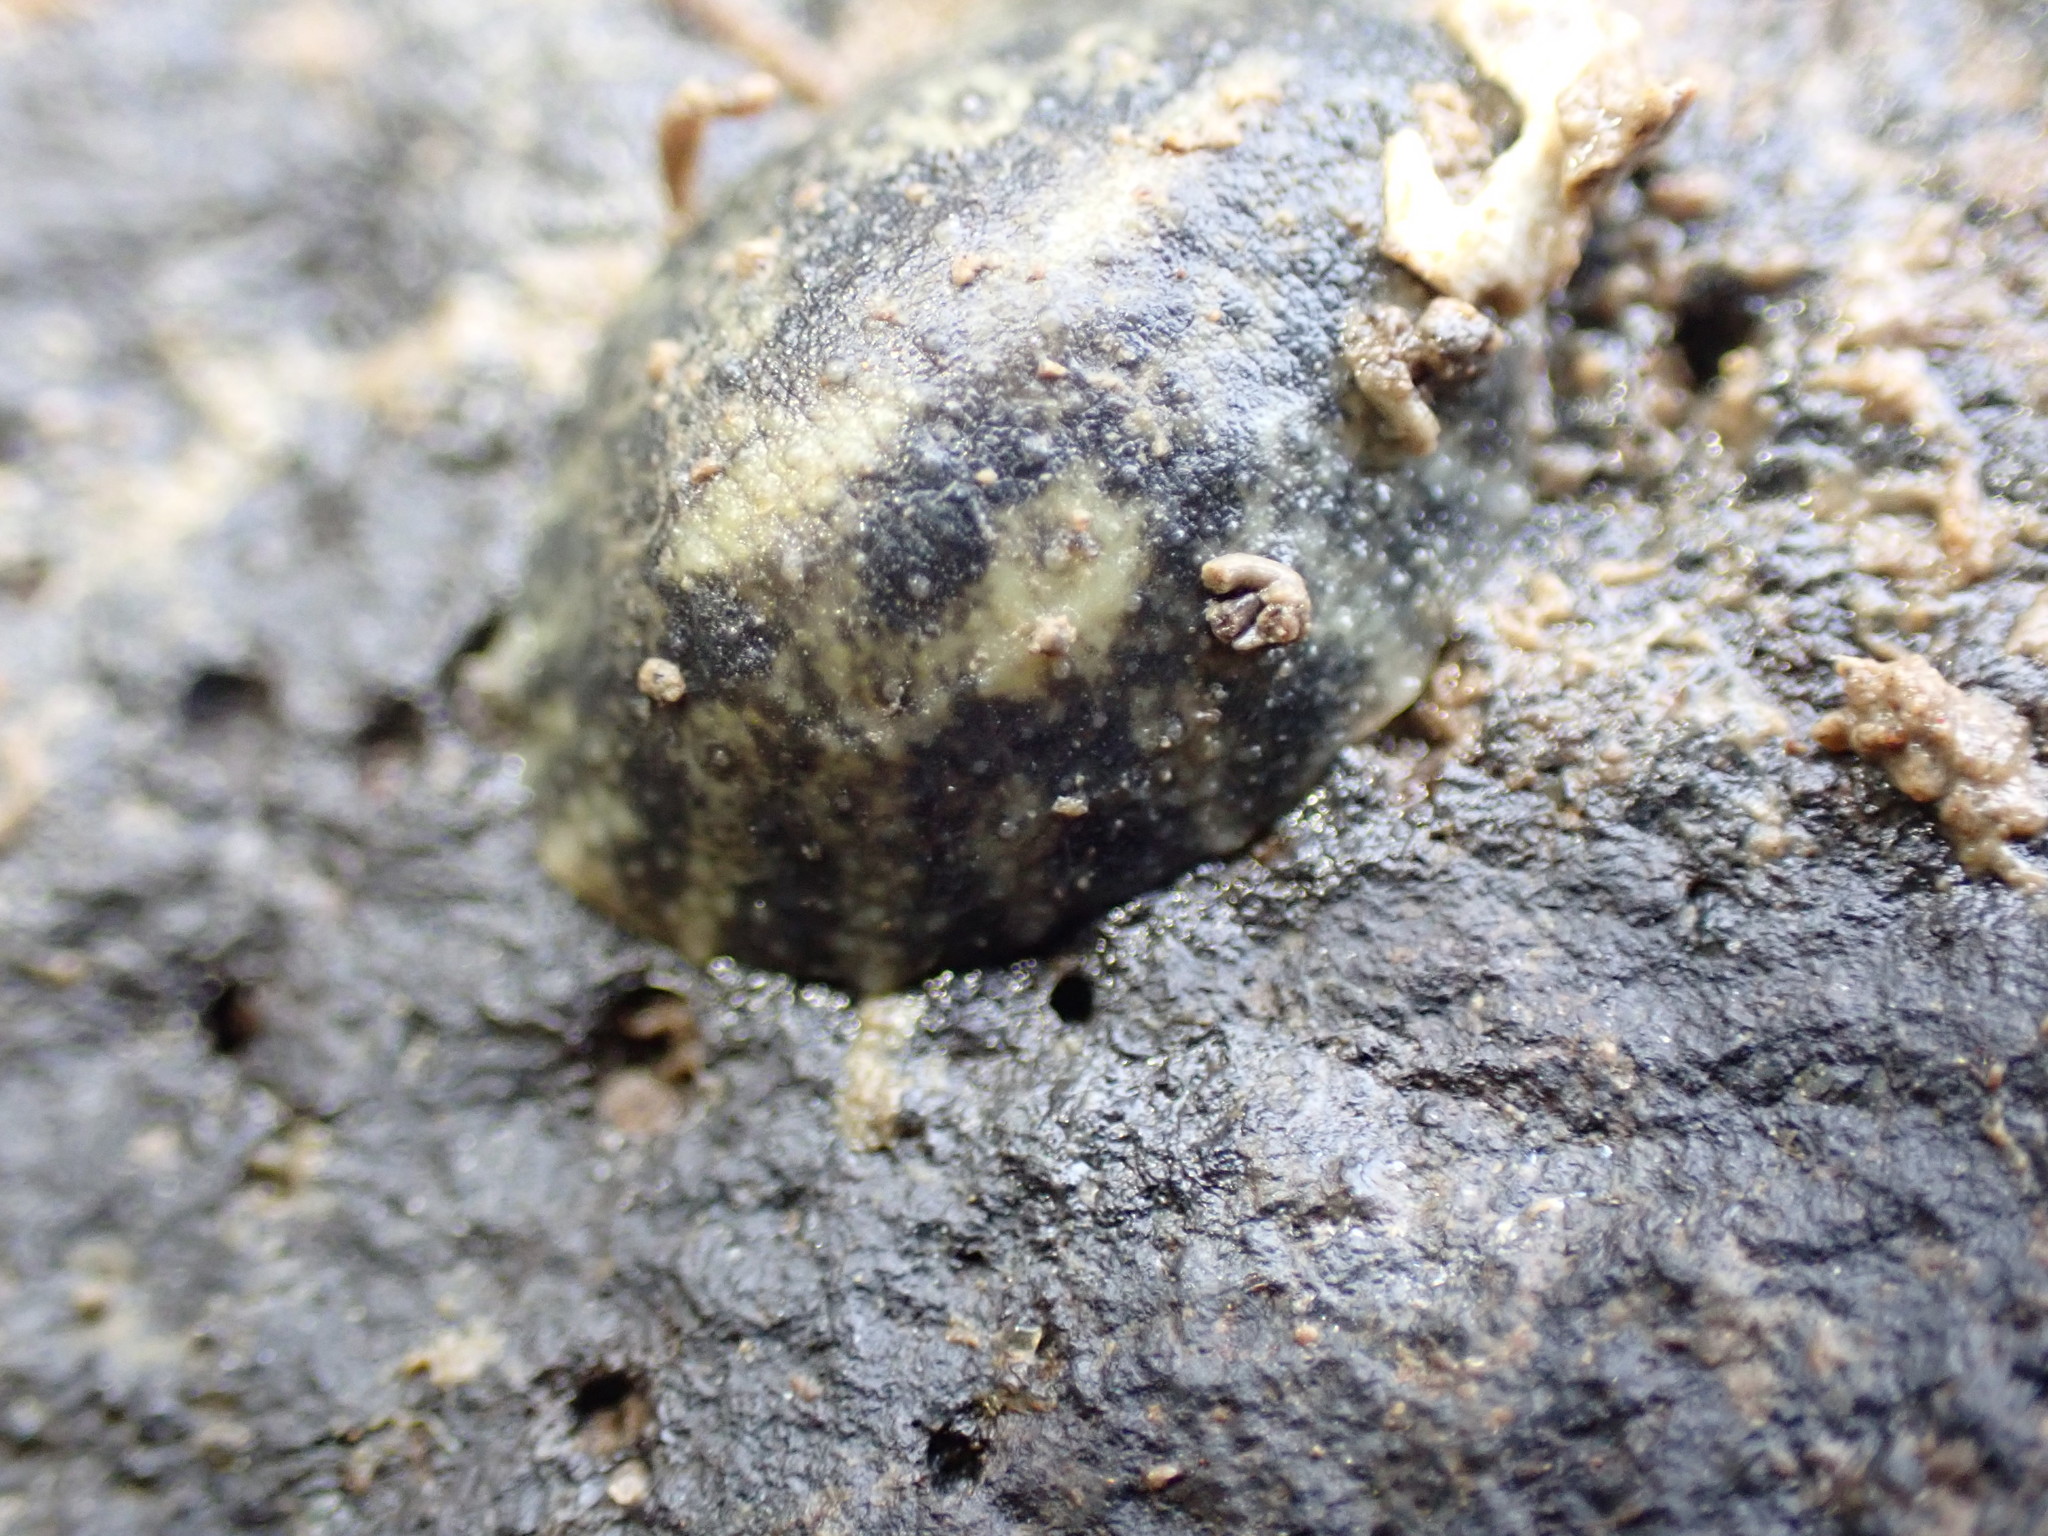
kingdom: Animalia
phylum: Mollusca
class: Gastropoda
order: Systellommatophora
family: Onchidiidae
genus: Onchidella
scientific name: Onchidella nigricans
